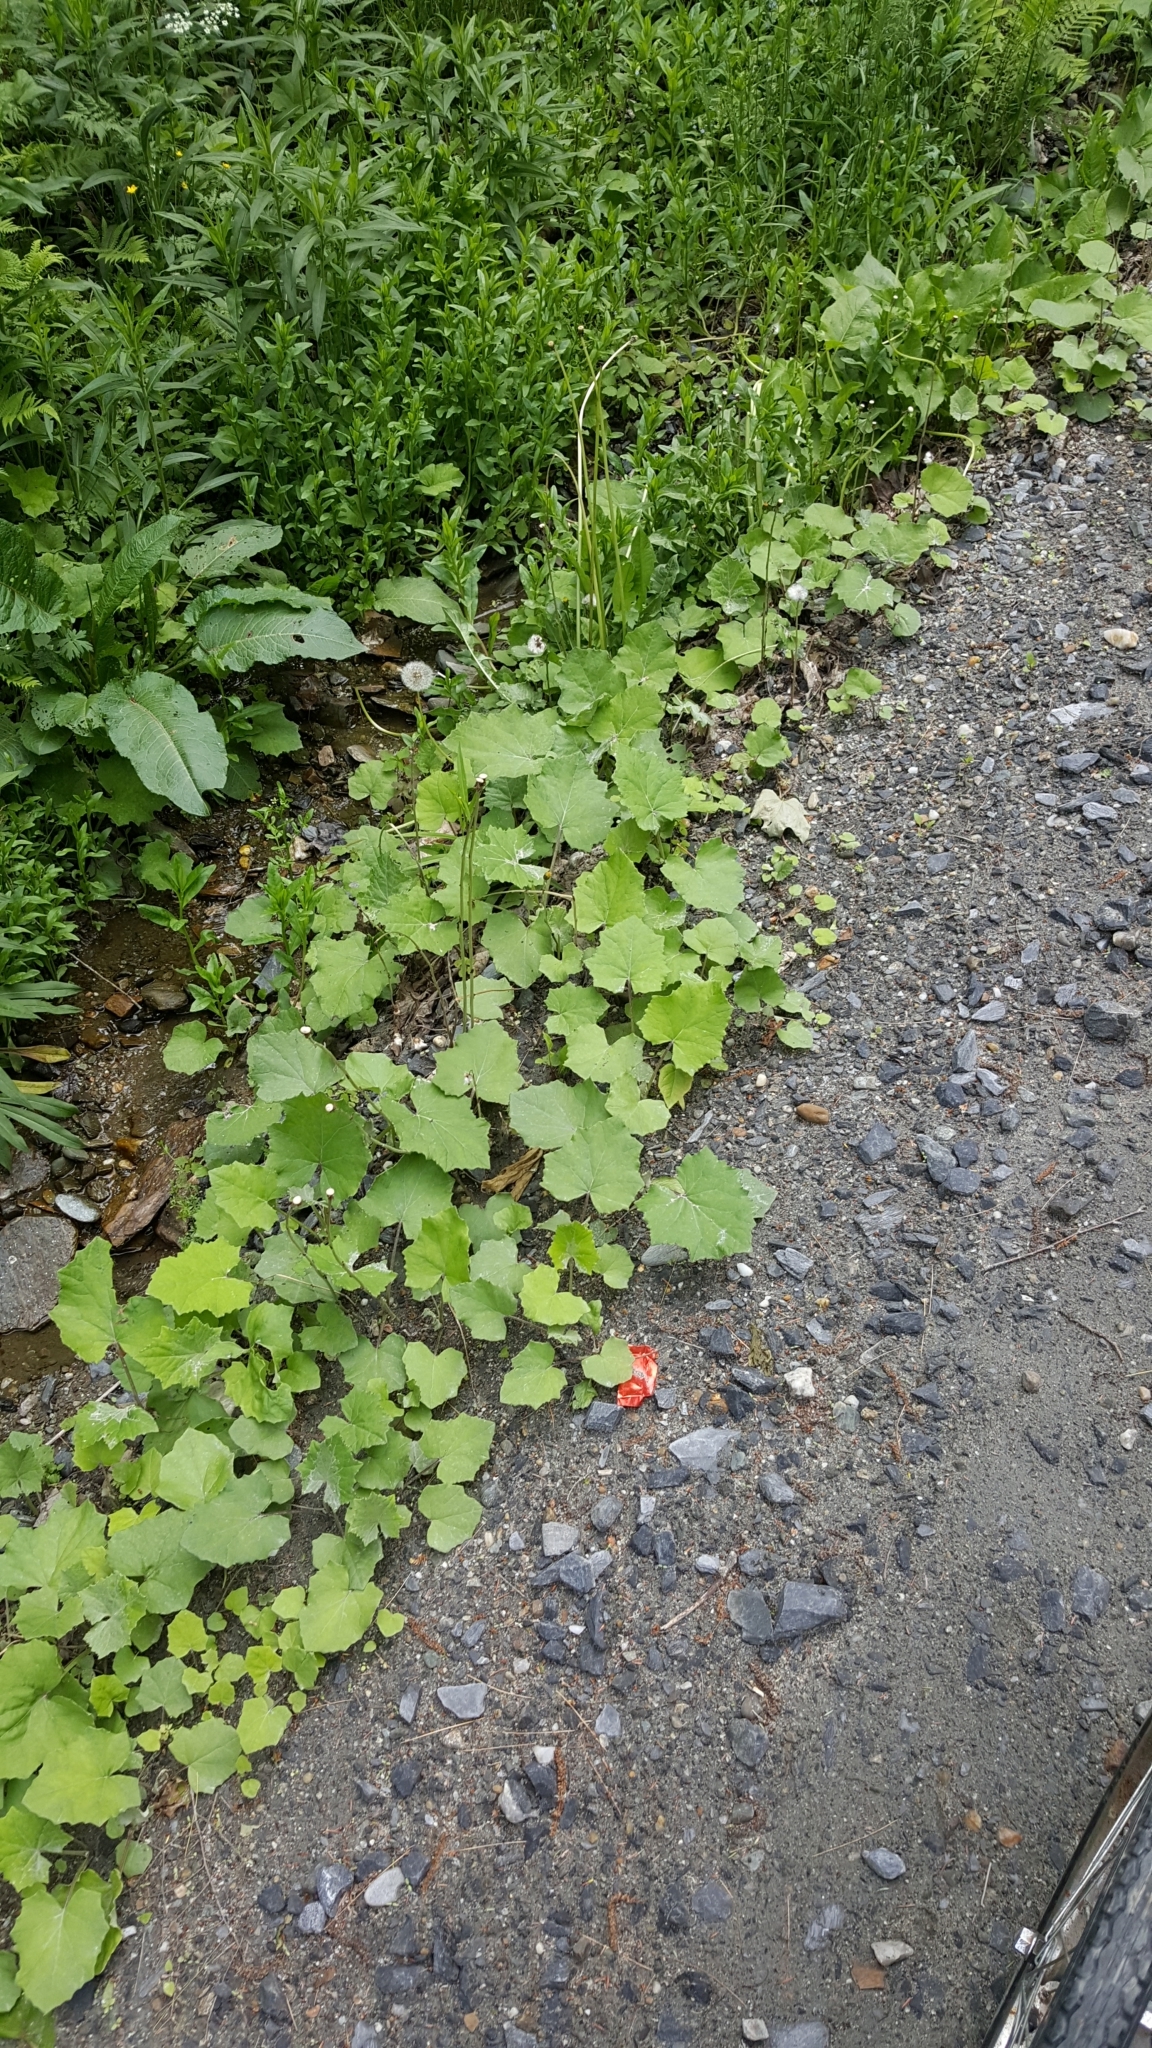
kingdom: Plantae
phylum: Tracheophyta
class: Magnoliopsida
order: Asterales
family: Asteraceae
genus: Tussilago
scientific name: Tussilago farfara
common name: Coltsfoot
